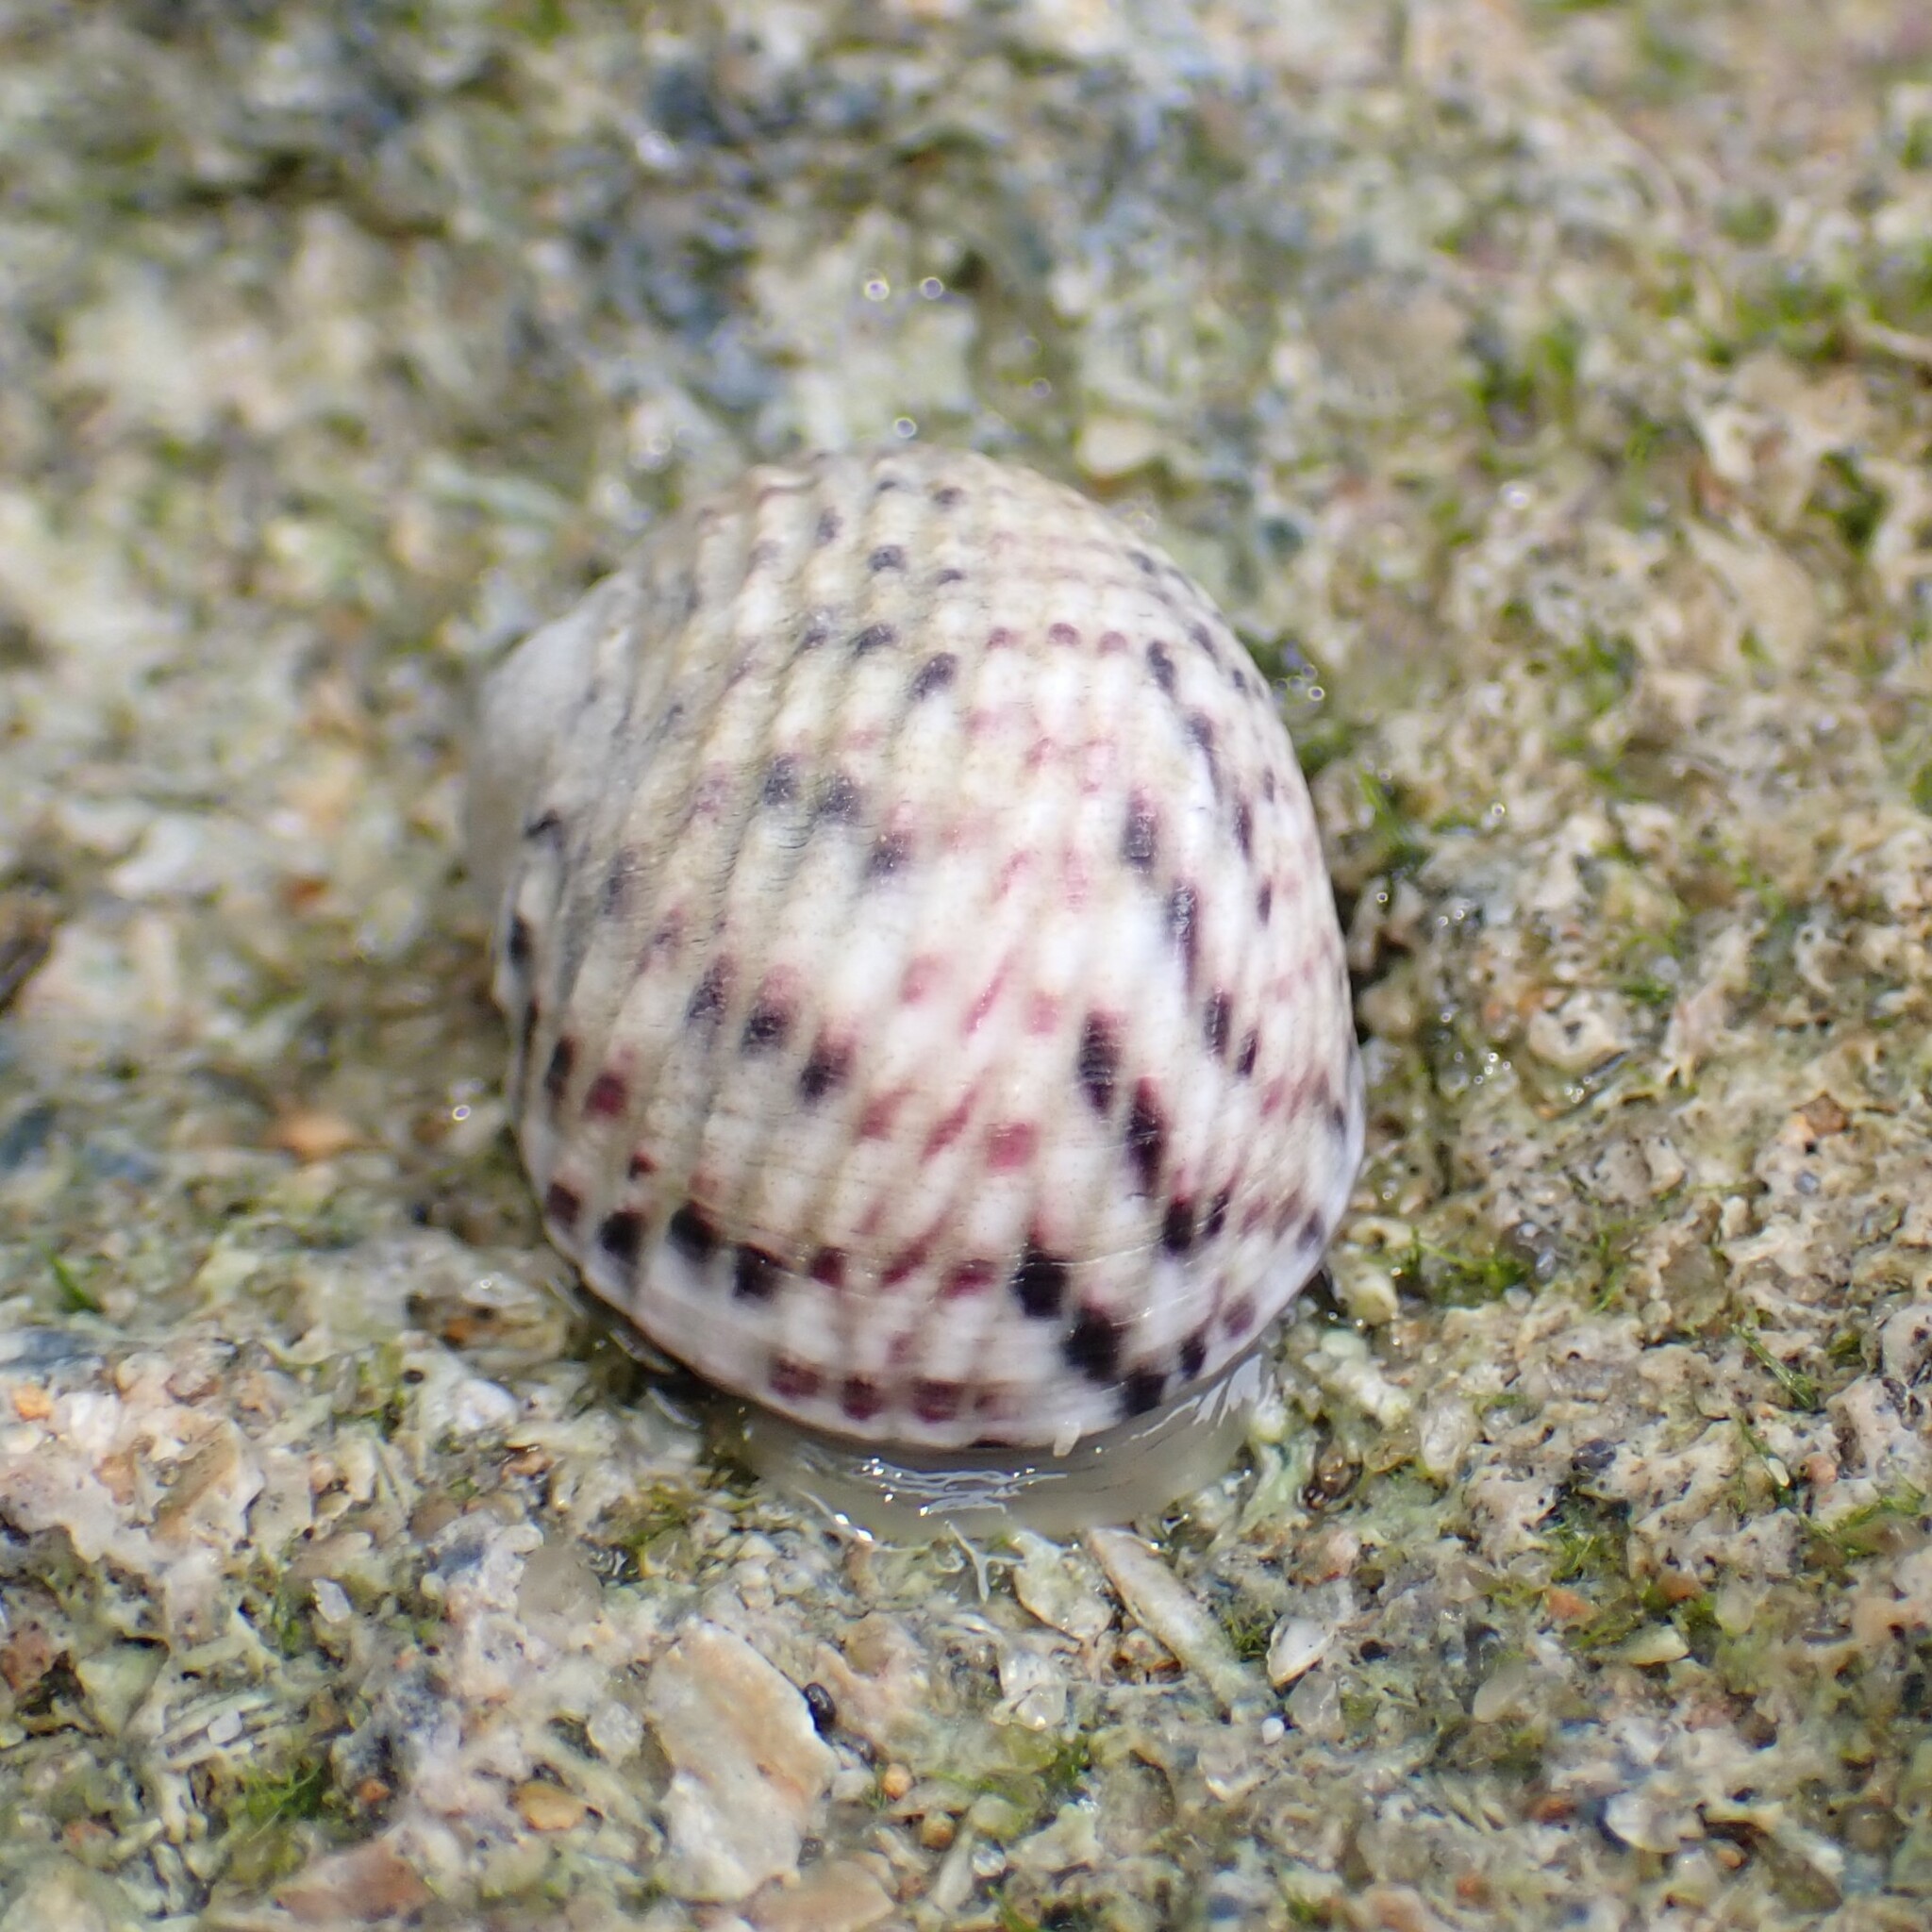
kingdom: Animalia
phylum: Mollusca
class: Gastropoda
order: Cycloneritida
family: Neritidae
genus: Nerita
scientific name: Nerita versicolor
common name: Four-tooth nerite
